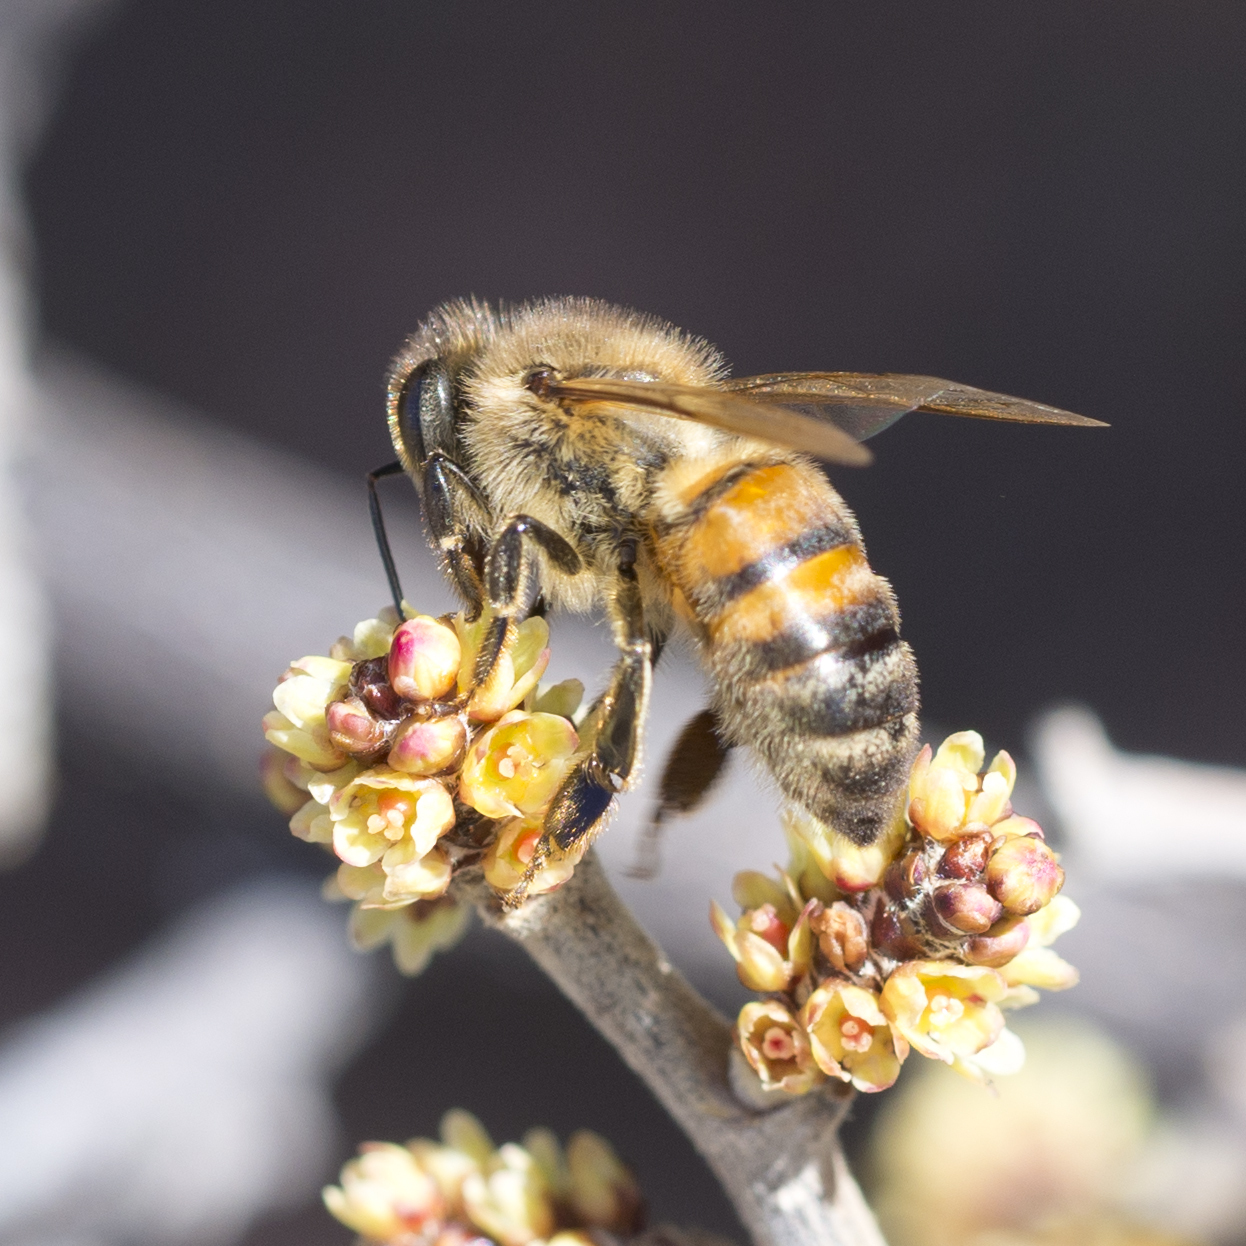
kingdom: Animalia
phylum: Arthropoda
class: Insecta
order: Hymenoptera
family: Apidae
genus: Apis
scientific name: Apis mellifera
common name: Honey bee
